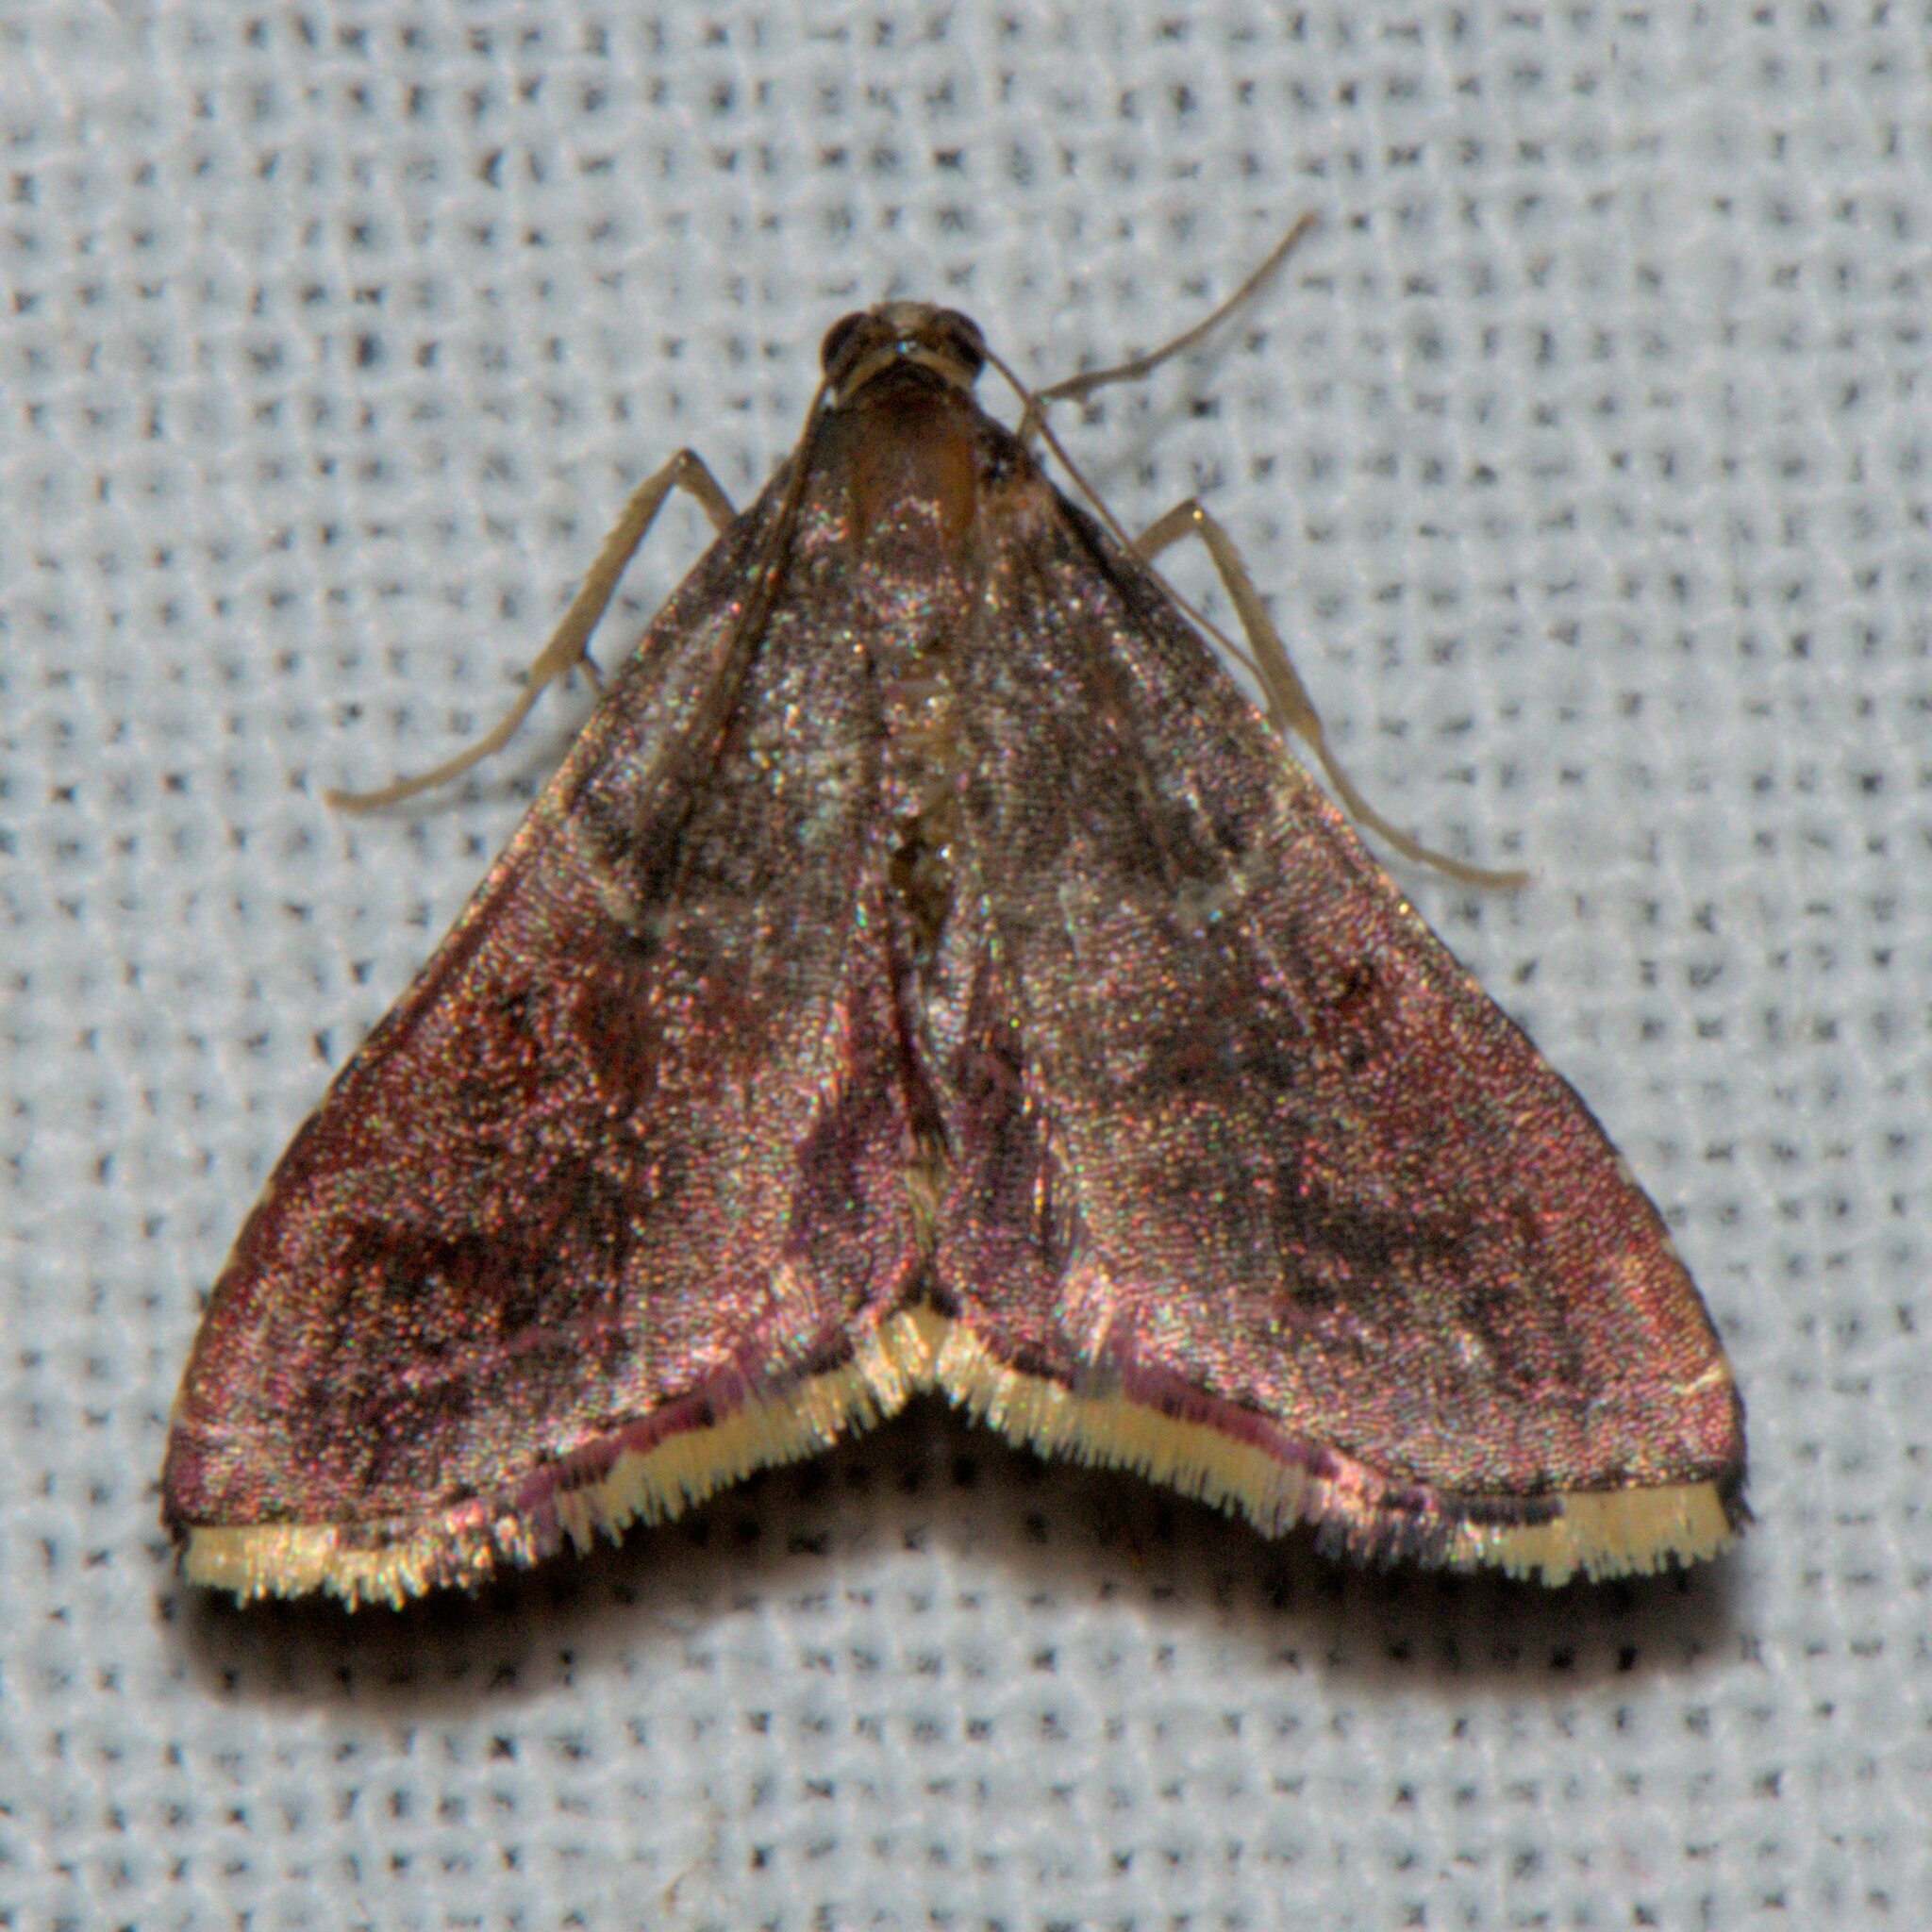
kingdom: Animalia
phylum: Arthropoda
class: Insecta
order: Lepidoptera
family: Pyralidae
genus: Endotricha
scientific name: Endotricha similata
